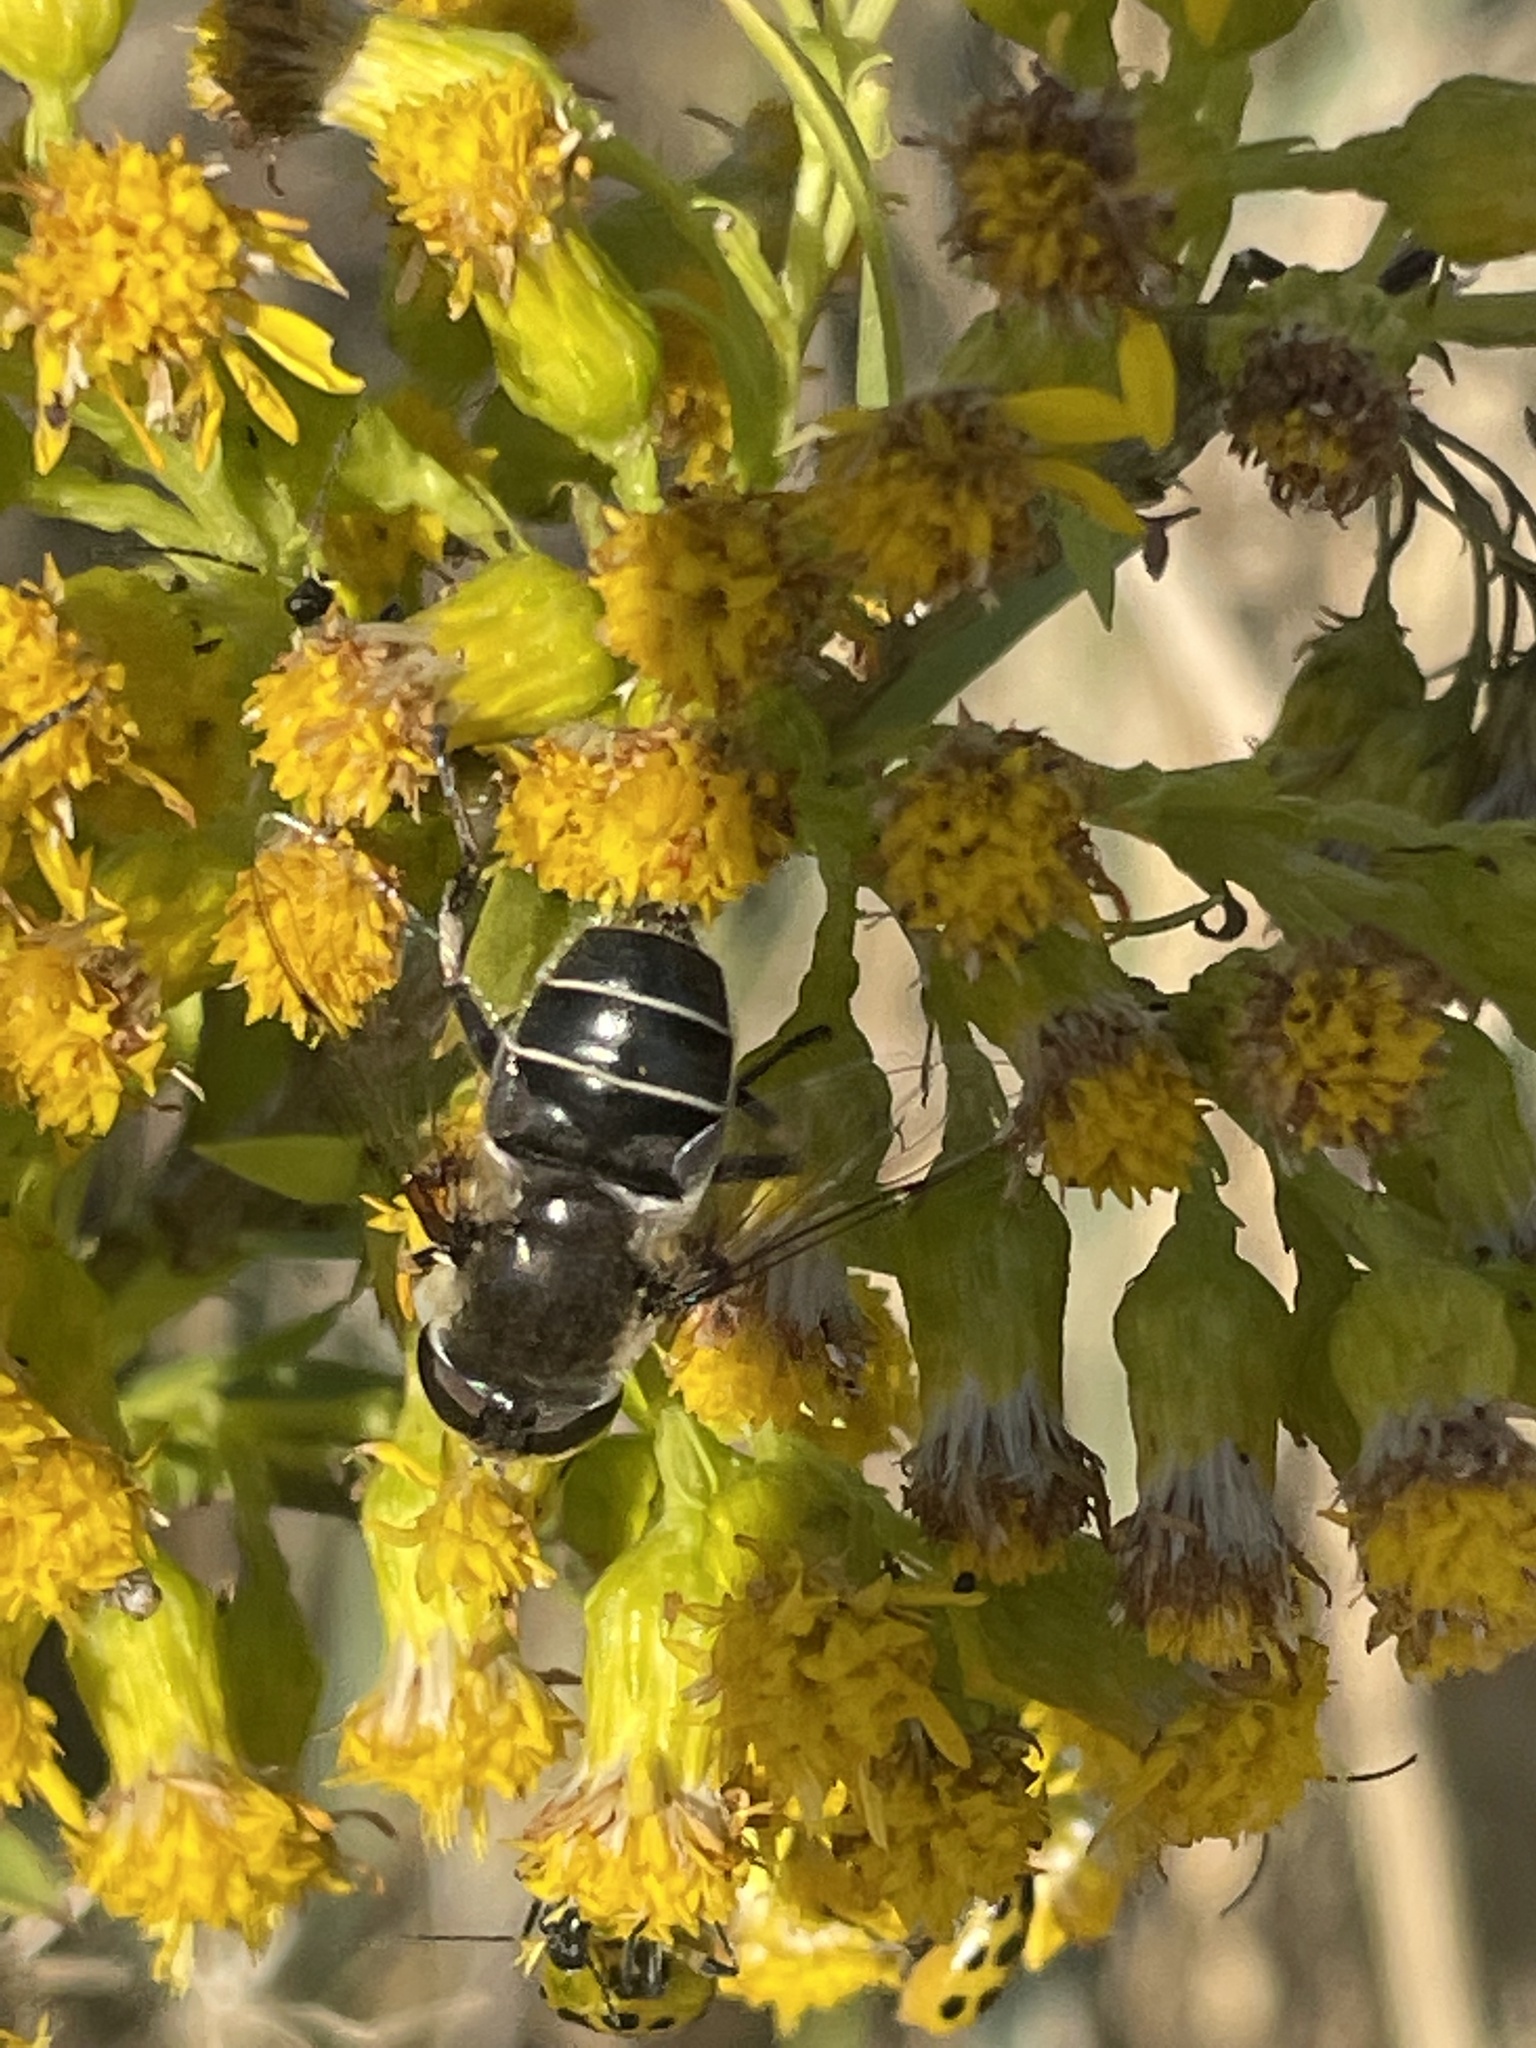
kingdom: Animalia
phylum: Arthropoda
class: Insecta
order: Diptera
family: Syrphidae
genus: Eristalis
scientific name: Eristalis dimidiata
